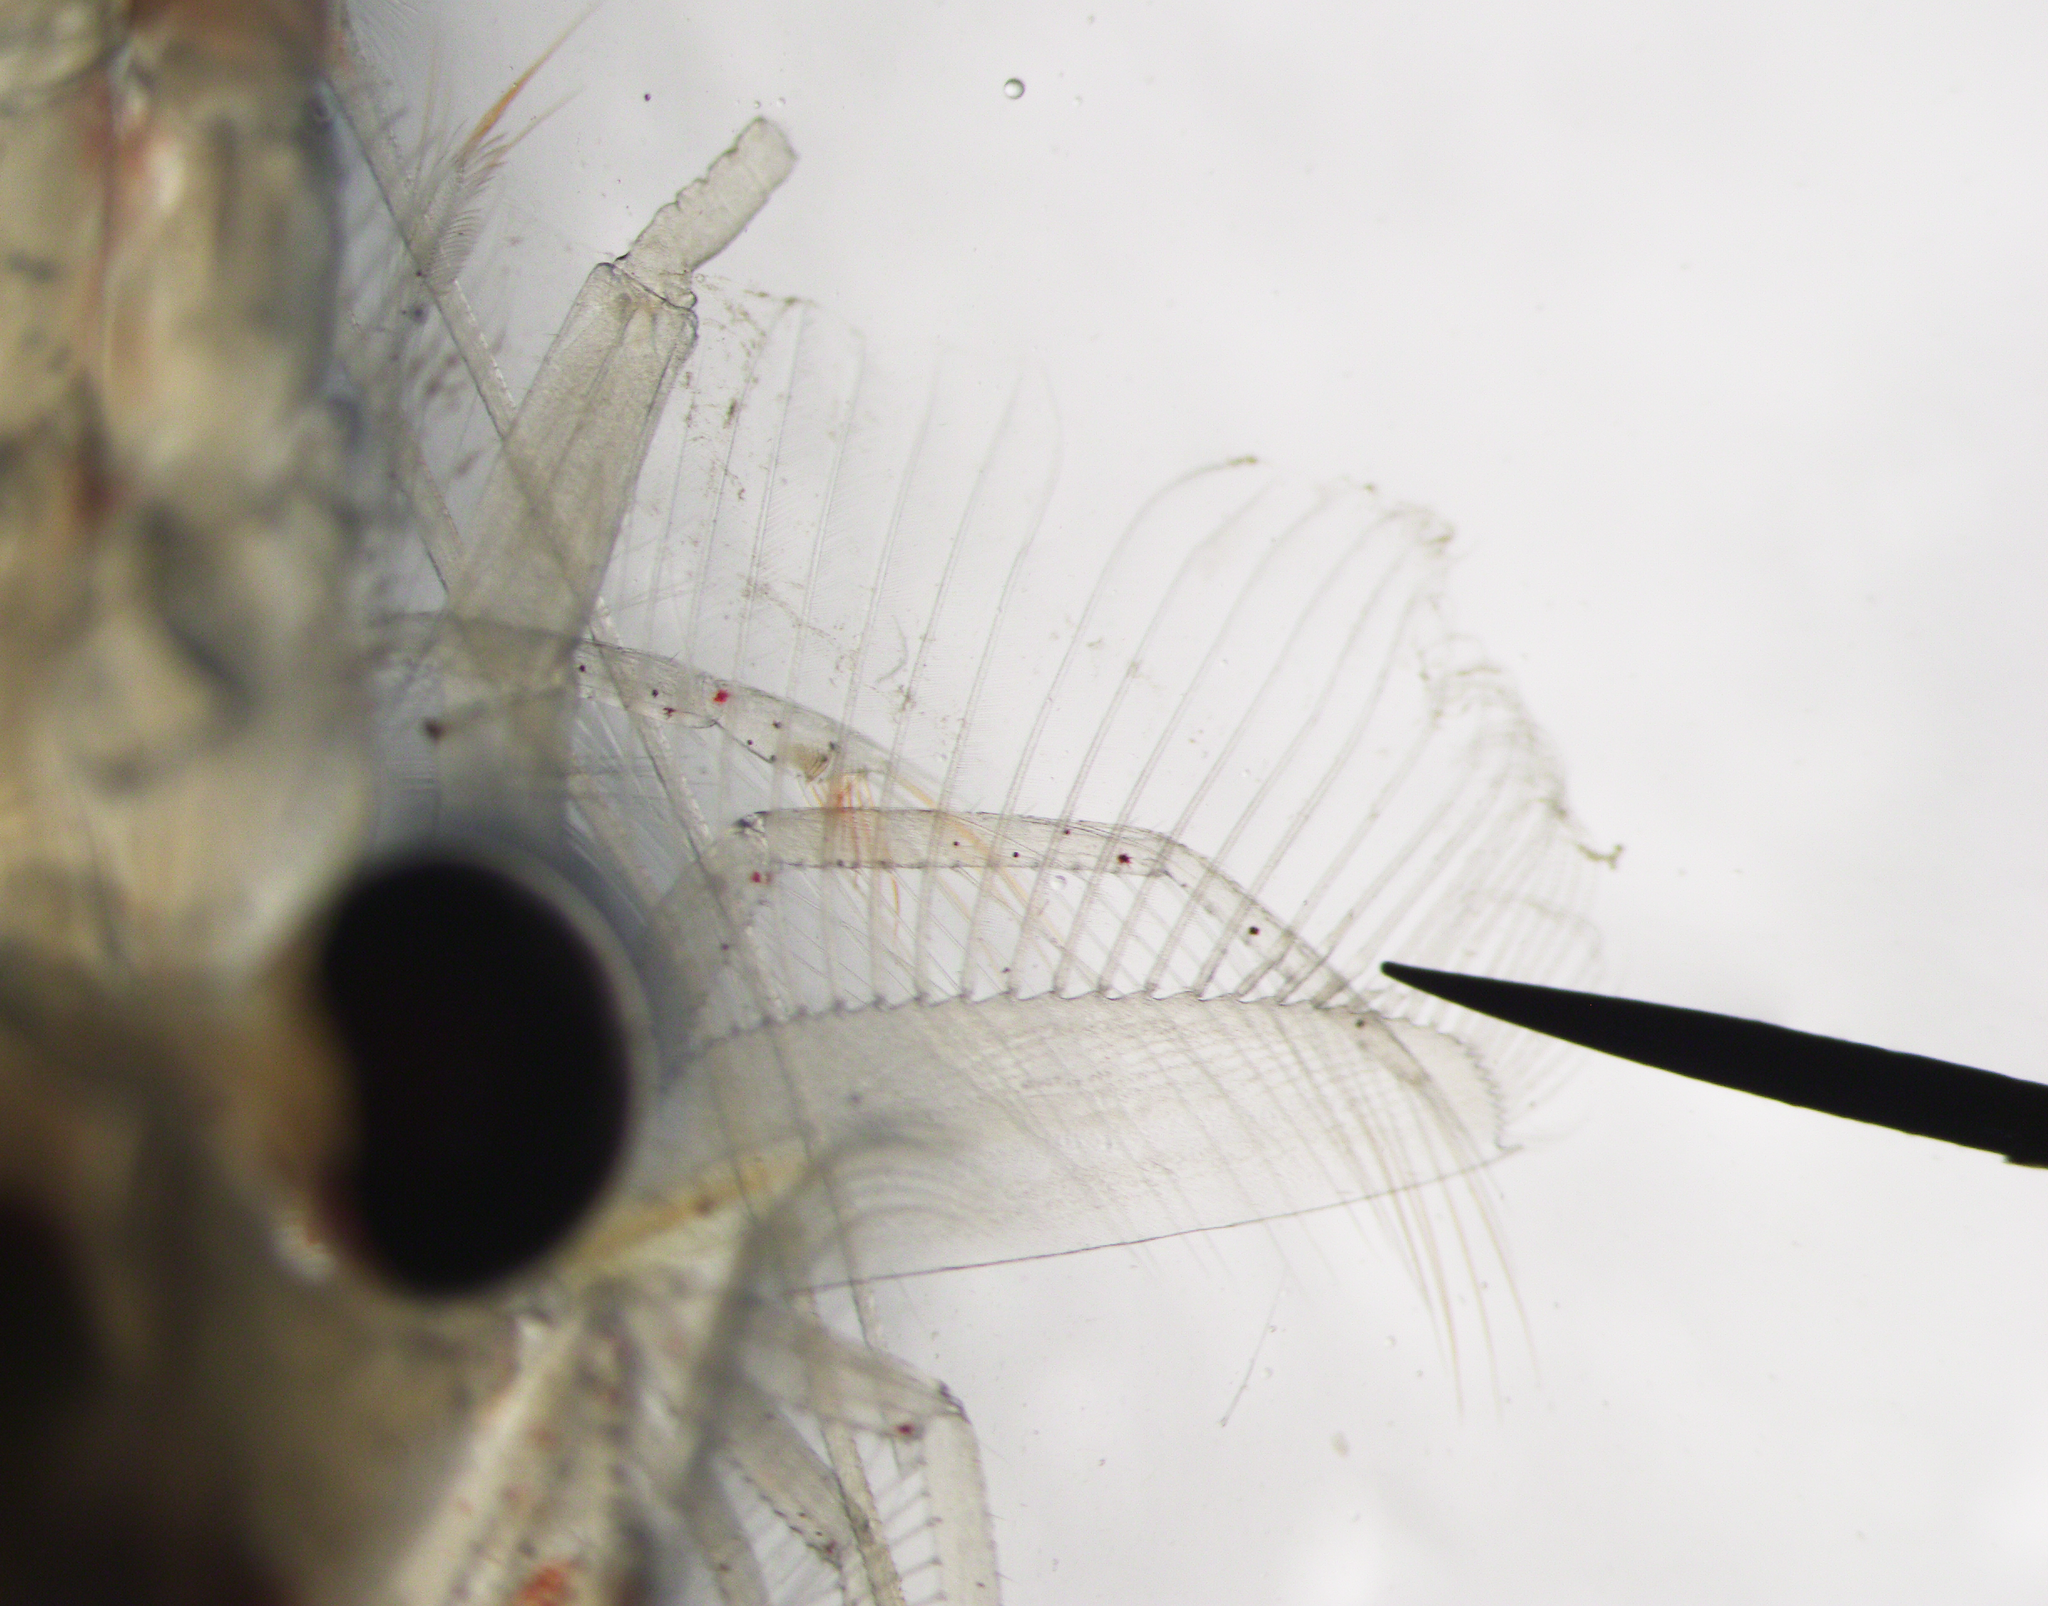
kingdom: Animalia
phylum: Arthropoda
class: Malacostraca
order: Euphausiacea
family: Euphausiidae
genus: Meganyctiphanes
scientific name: Meganyctiphanes norvegica
